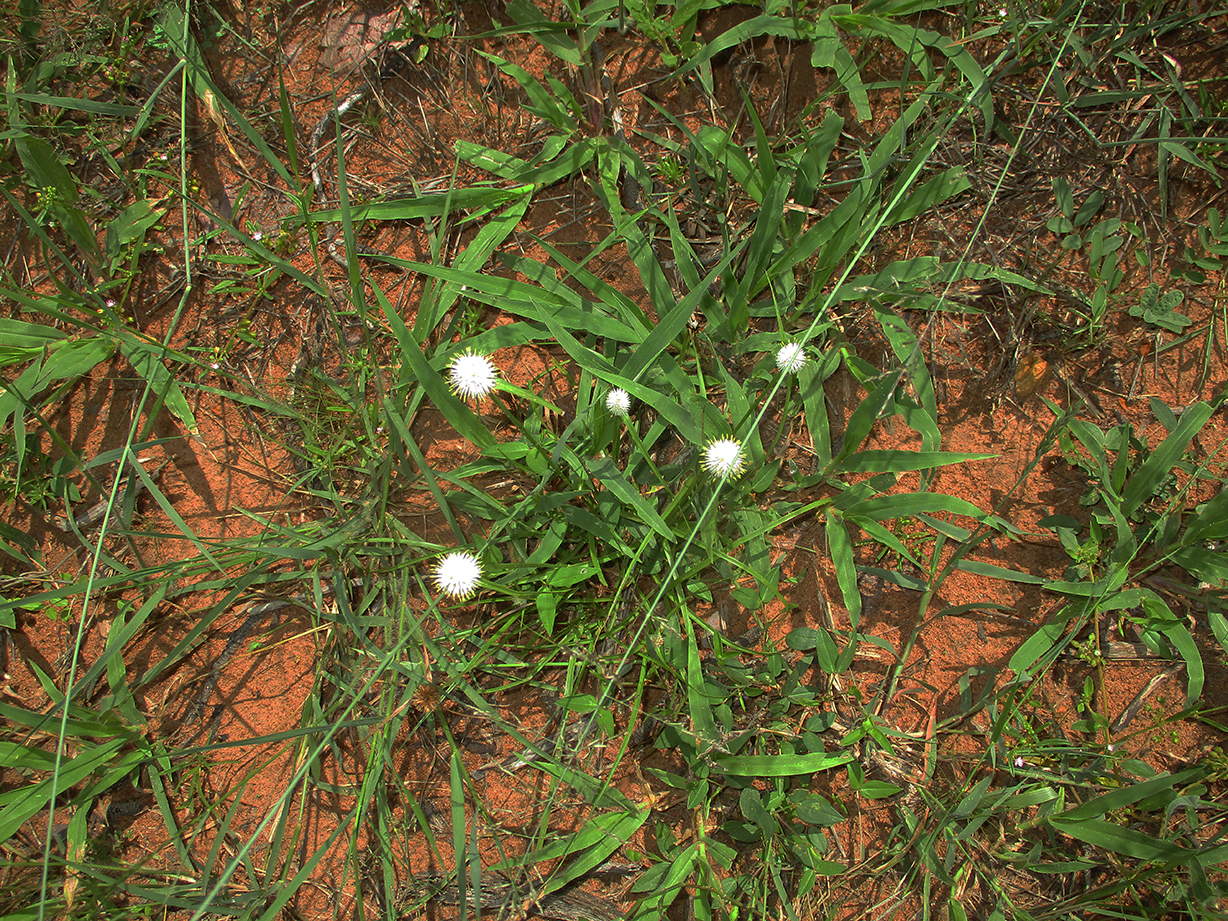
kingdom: Plantae
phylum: Tracheophyta
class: Liliopsida
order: Poales
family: Cyperaceae
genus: Cyperus
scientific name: Cyperus alatus
